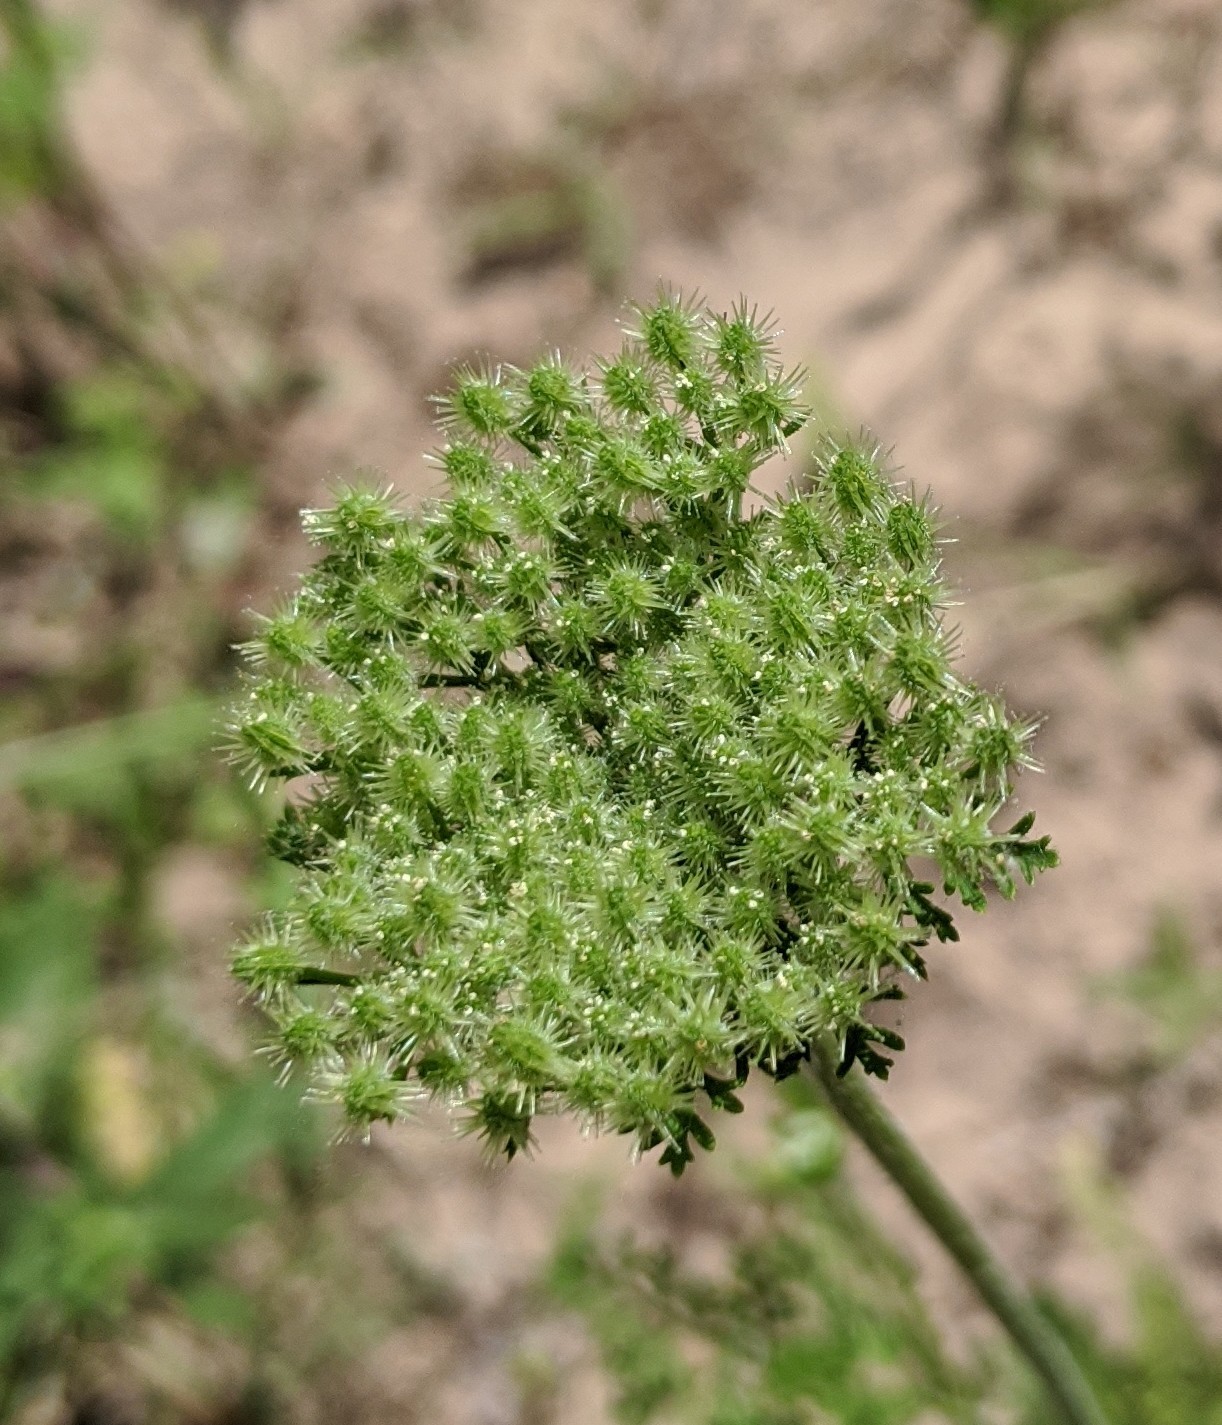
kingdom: Plantae
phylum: Tracheophyta
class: Magnoliopsida
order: Apiales
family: Apiaceae
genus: Daucus
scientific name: Daucus pusillus
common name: Southwest wild carrot
